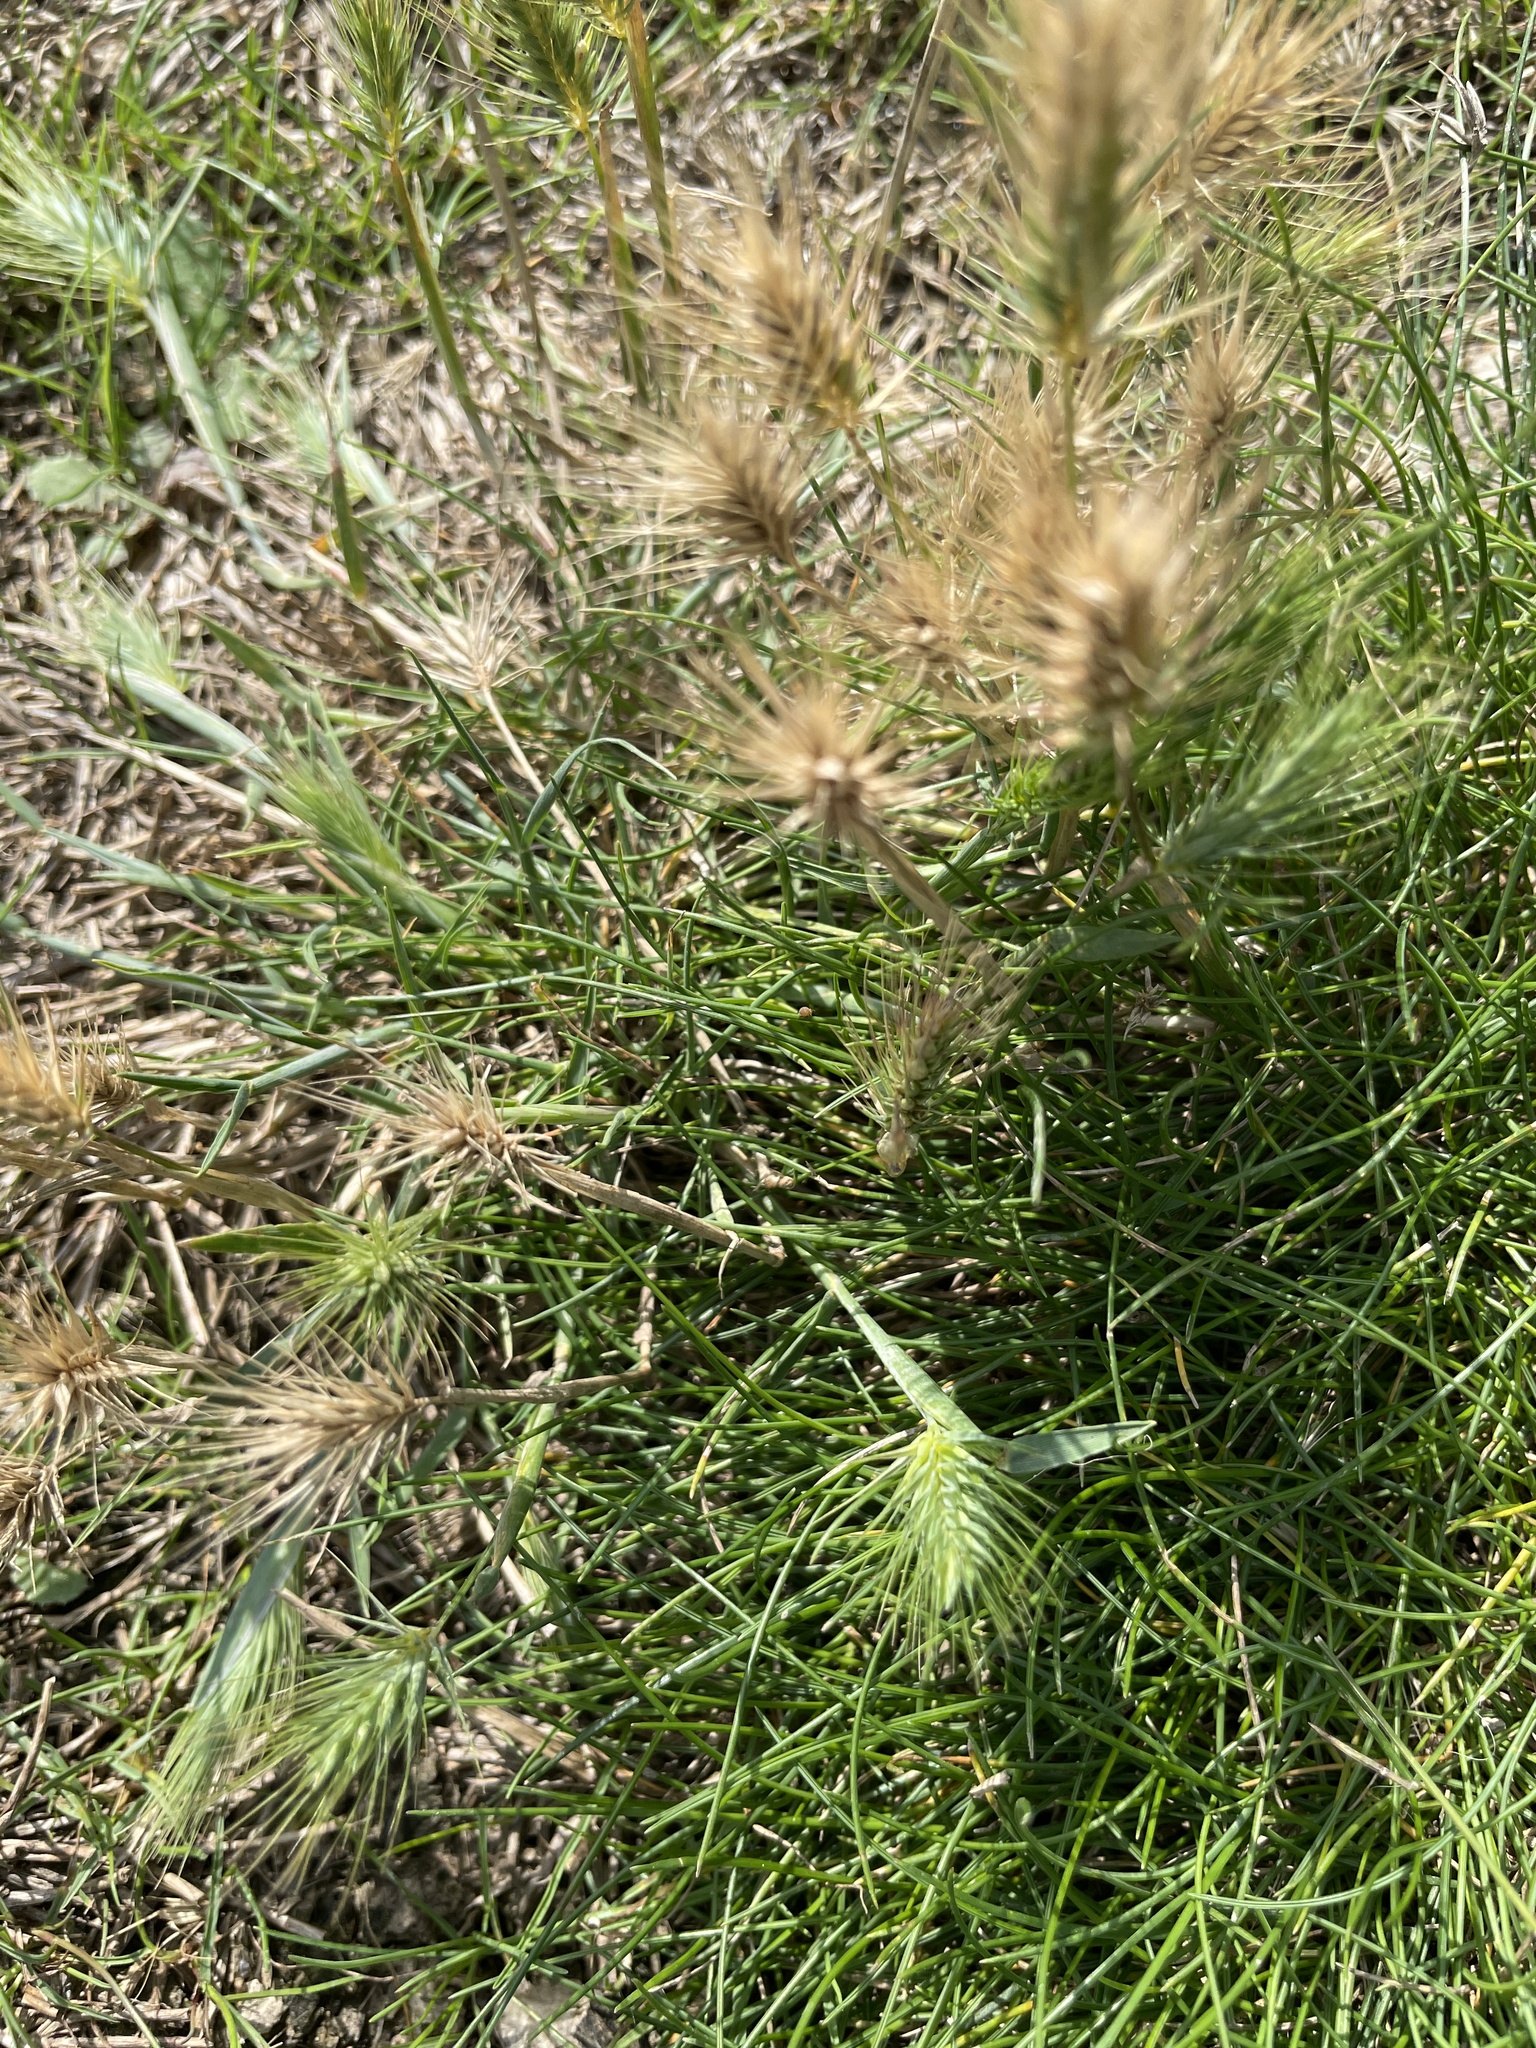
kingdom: Plantae
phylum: Tracheophyta
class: Liliopsida
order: Poales
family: Poaceae
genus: Hordeum
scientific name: Hordeum marinum
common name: Sea barley
